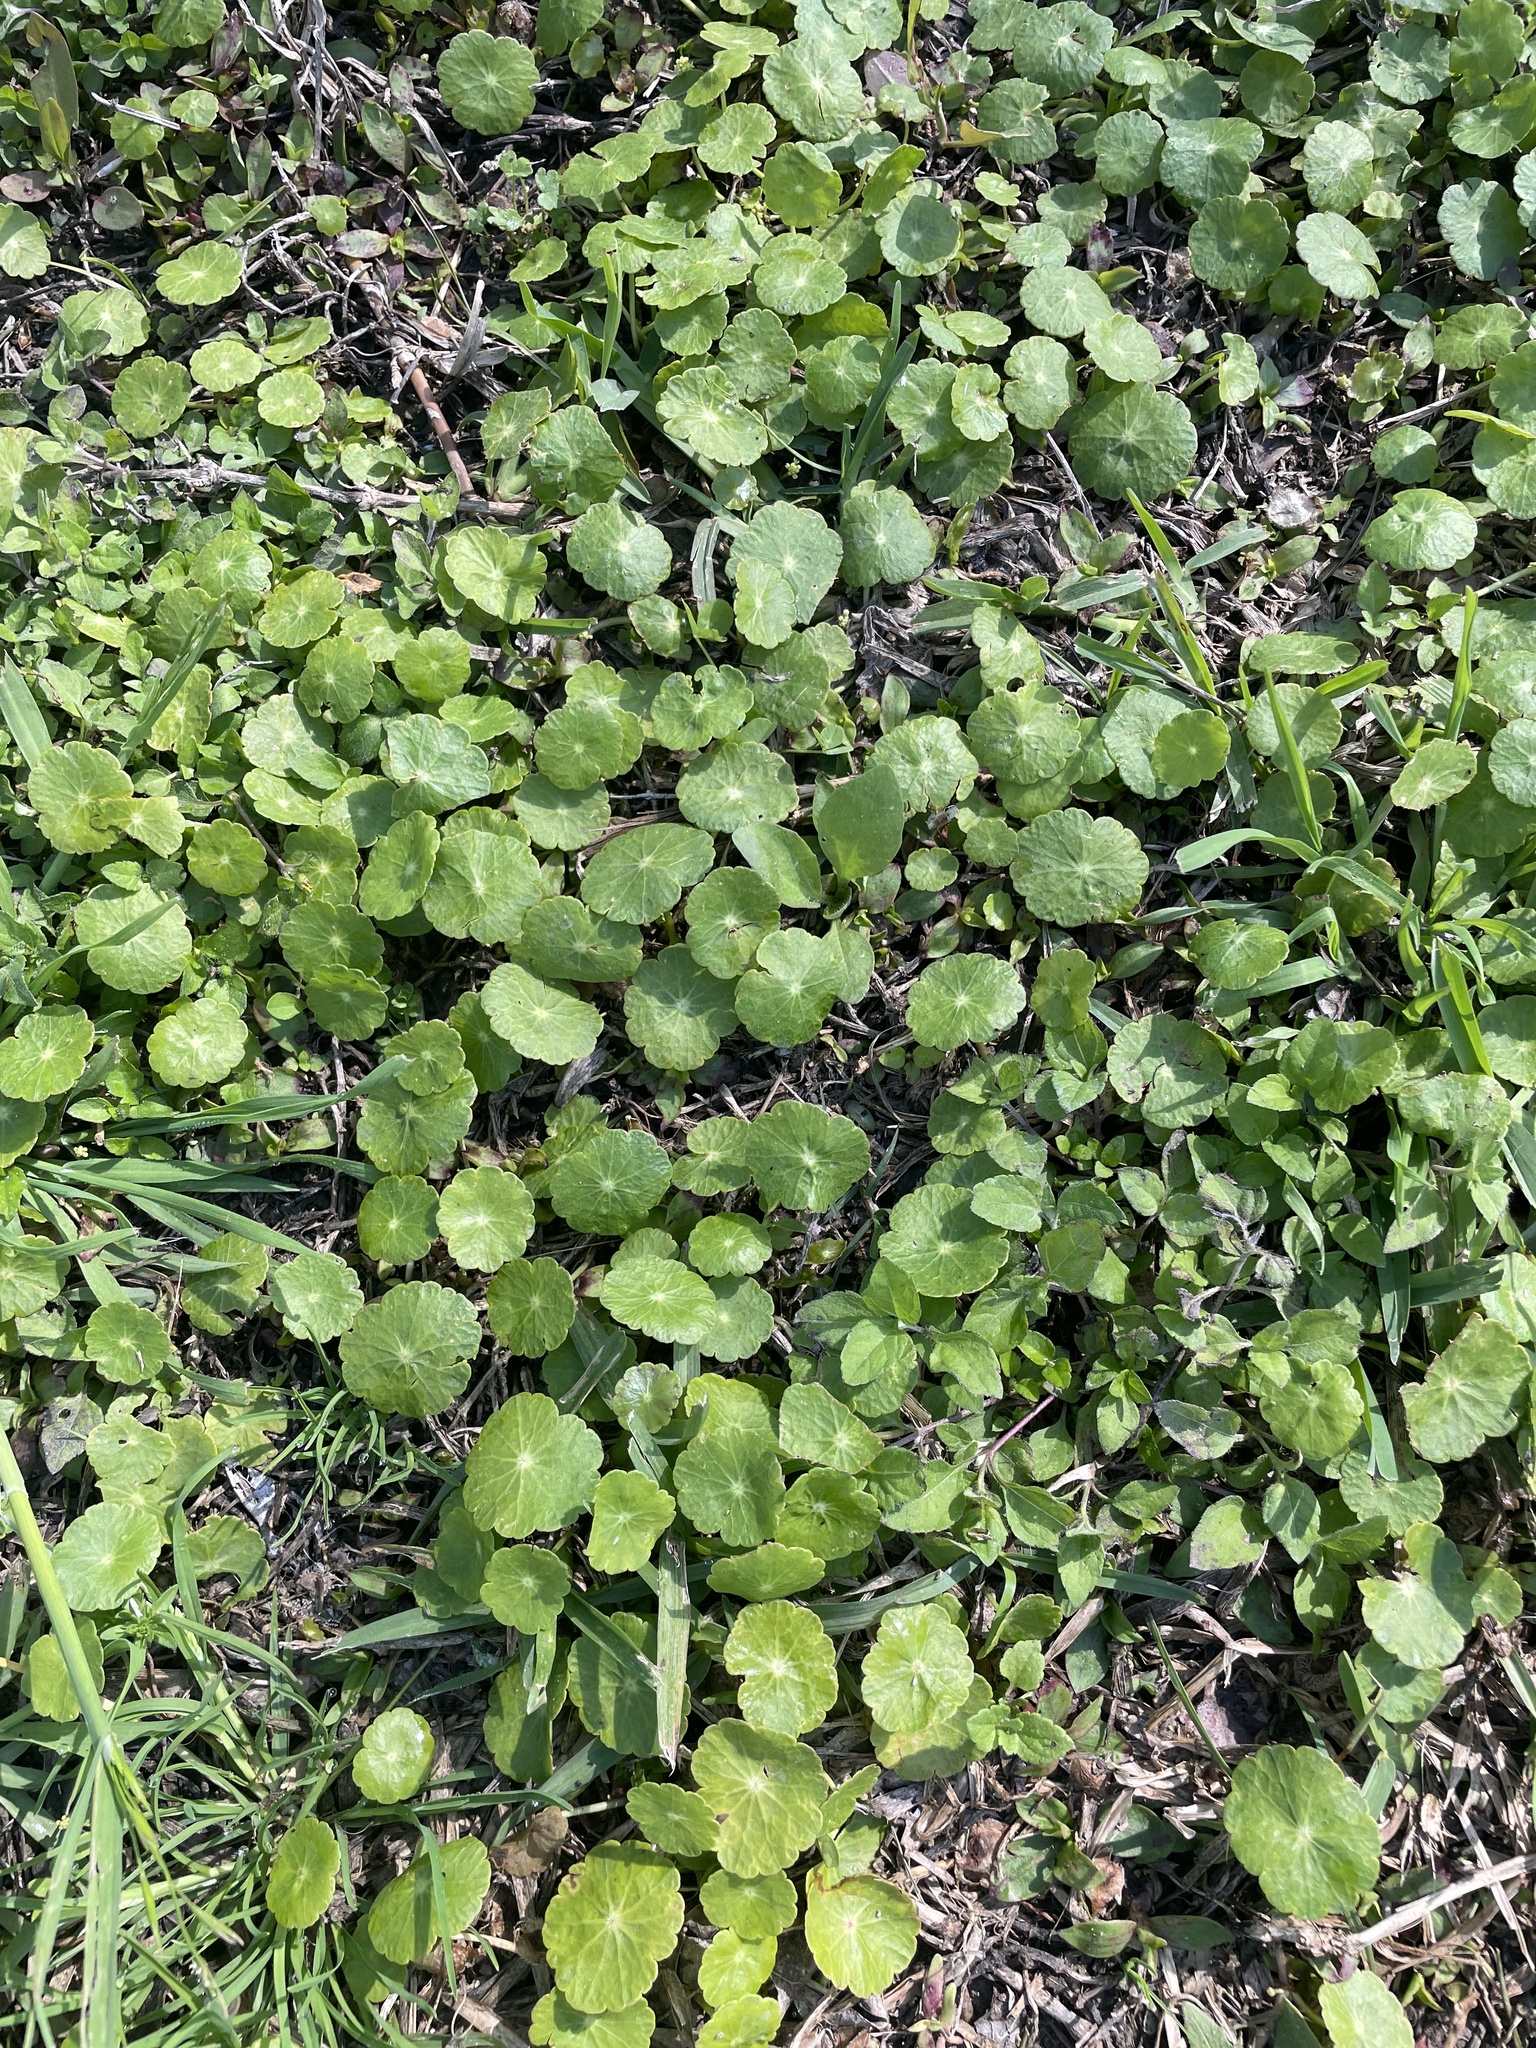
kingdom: Plantae
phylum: Tracheophyta
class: Magnoliopsida
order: Apiales
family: Araliaceae
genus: Hydrocotyle
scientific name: Hydrocotyle verticillata
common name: Whorled marshpennywort
